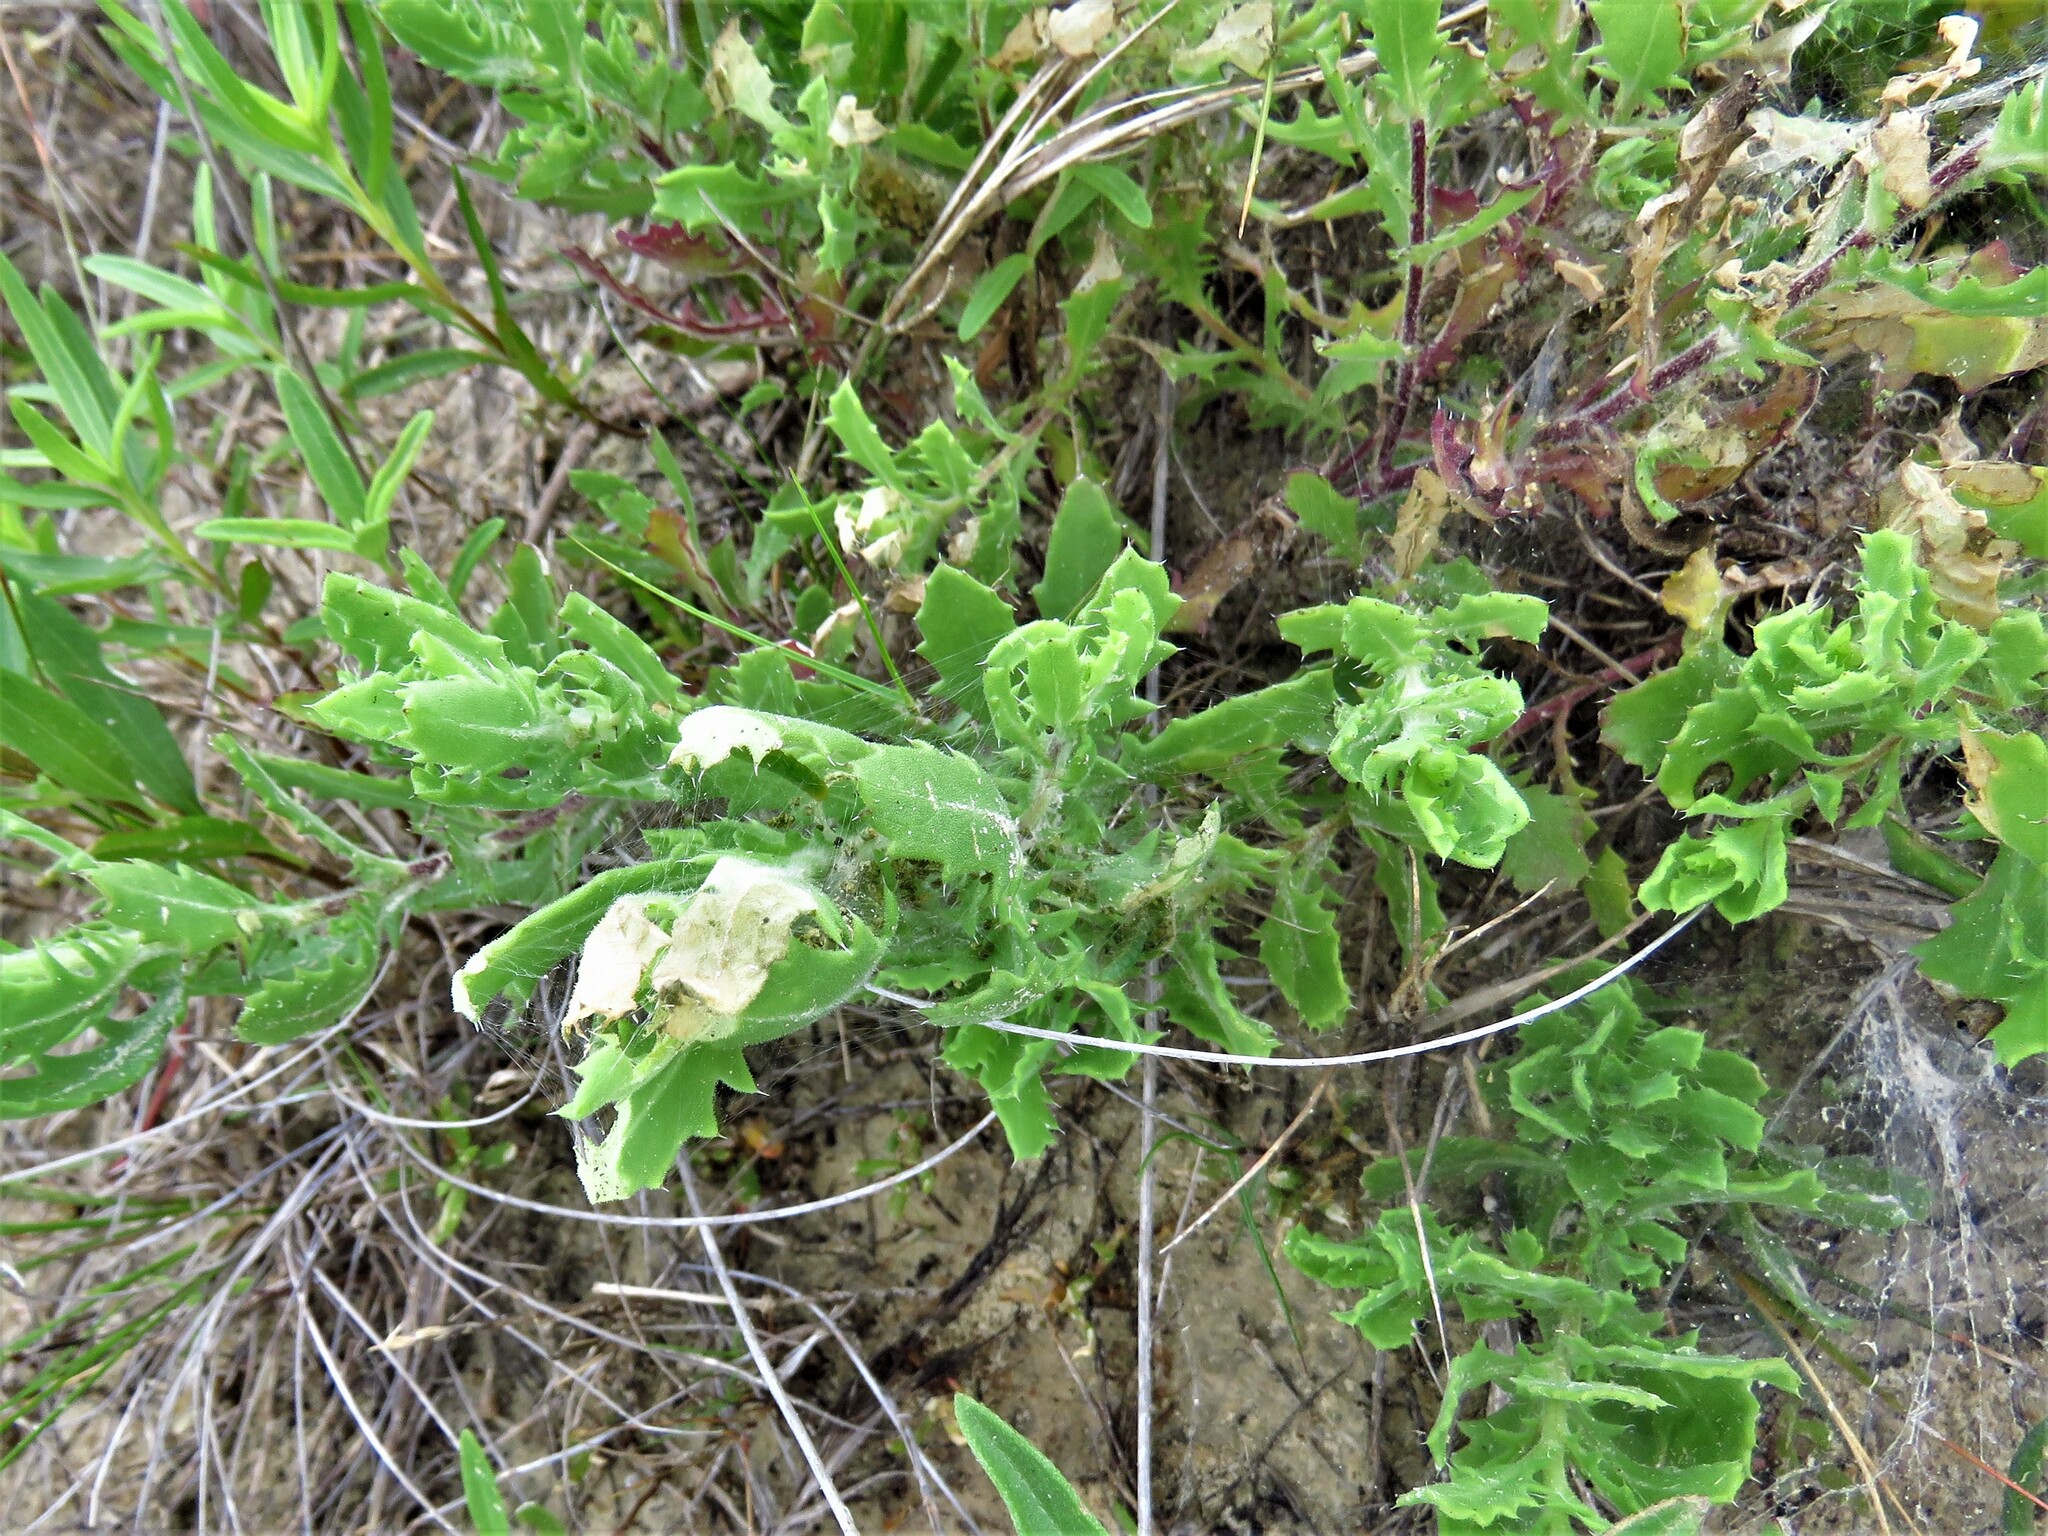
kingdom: Plantae
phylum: Tracheophyta
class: Magnoliopsida
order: Asterales
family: Asteraceae
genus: Rayjacksonia
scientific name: Rayjacksonia phyllocephala
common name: Gulf coast camphor daisy
